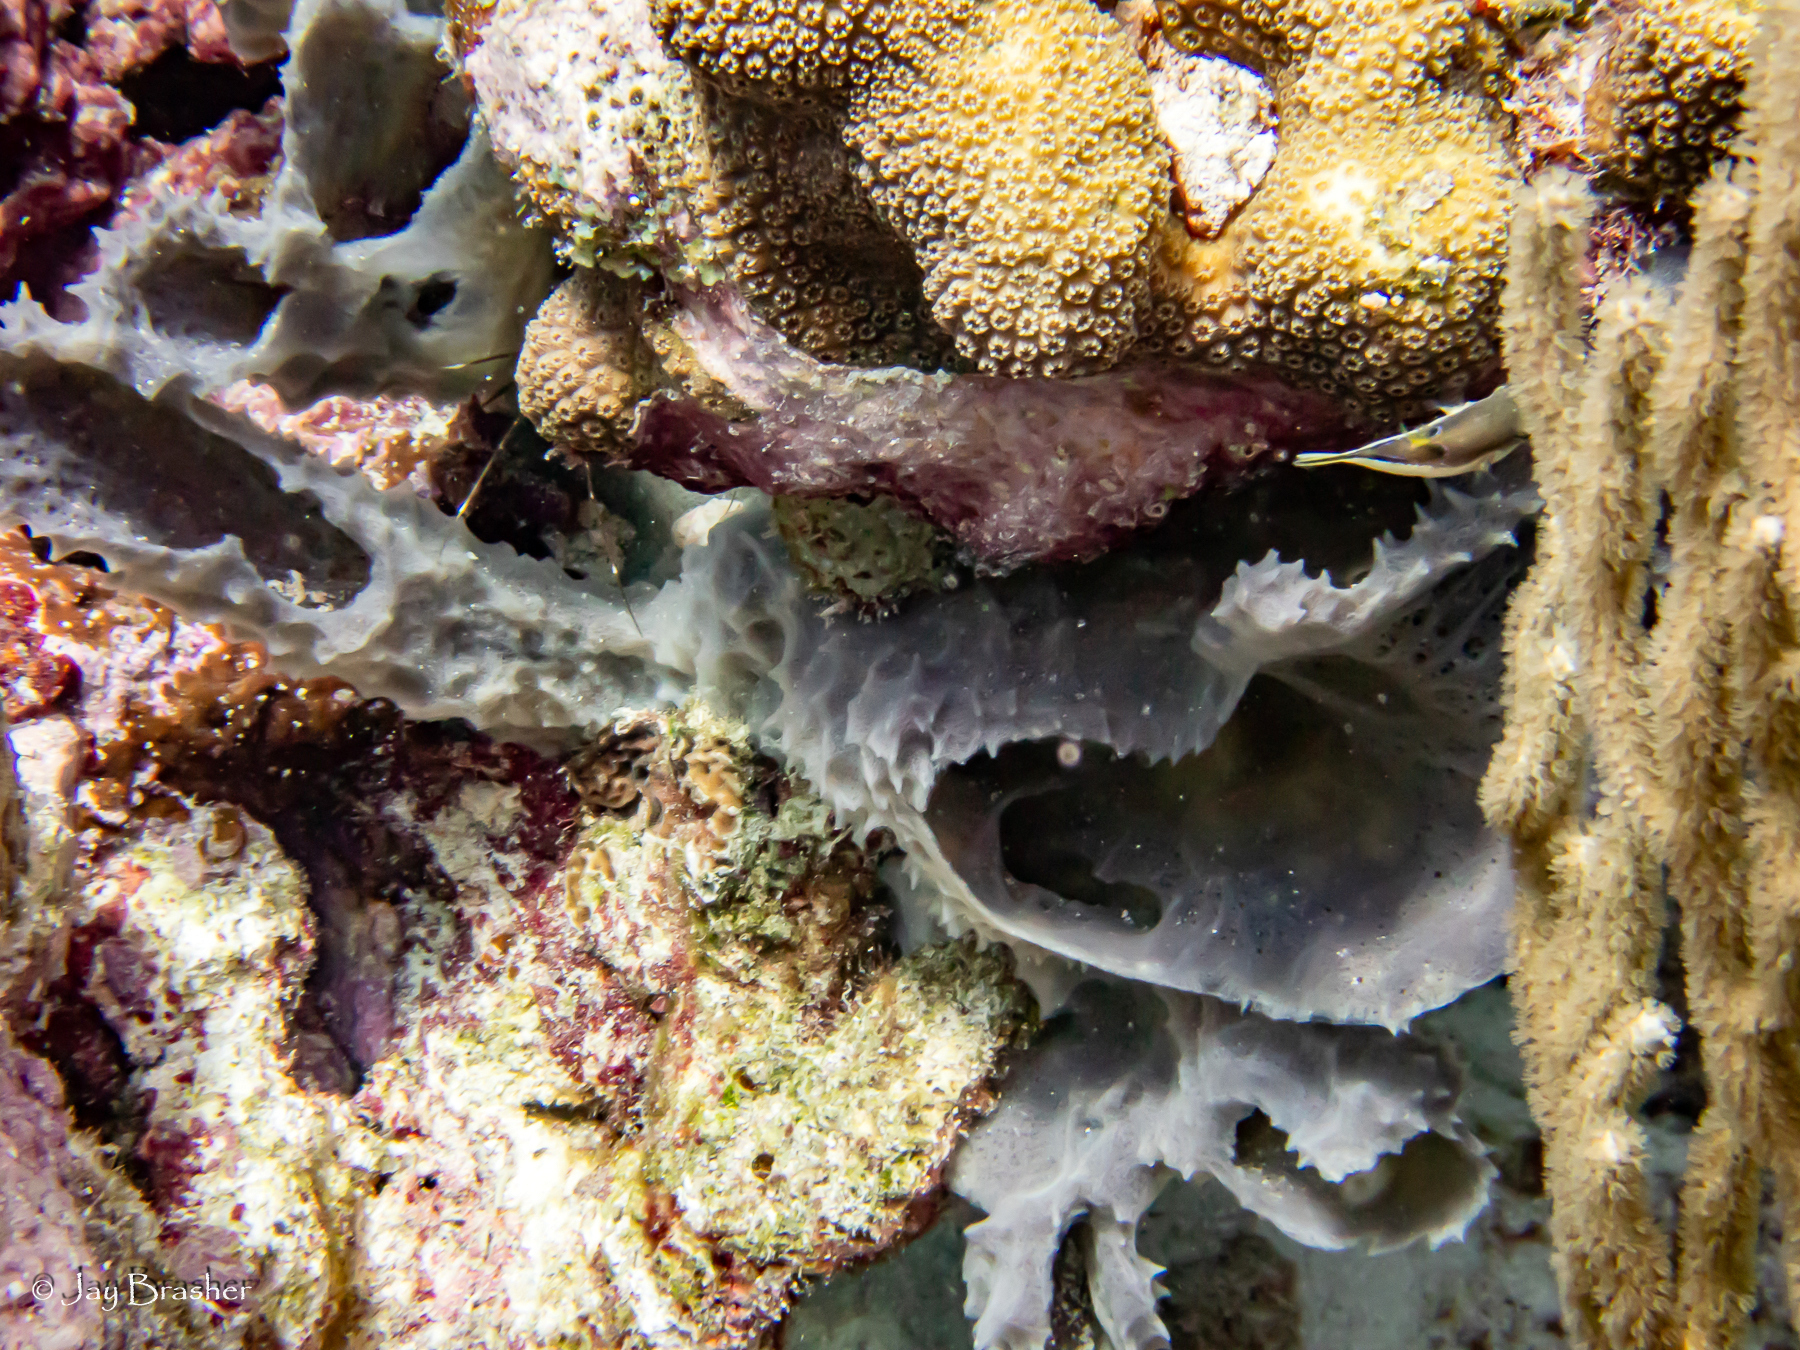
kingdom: Animalia
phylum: Porifera
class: Demospongiae
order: Haplosclerida
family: Callyspongiidae
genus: Callyspongia
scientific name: Callyspongia aculeata
